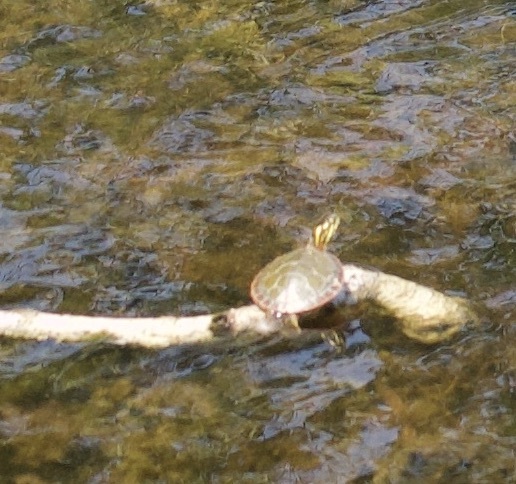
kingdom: Animalia
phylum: Chordata
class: Testudines
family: Emydidae
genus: Chrysemys
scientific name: Chrysemys picta
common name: Painted turtle
